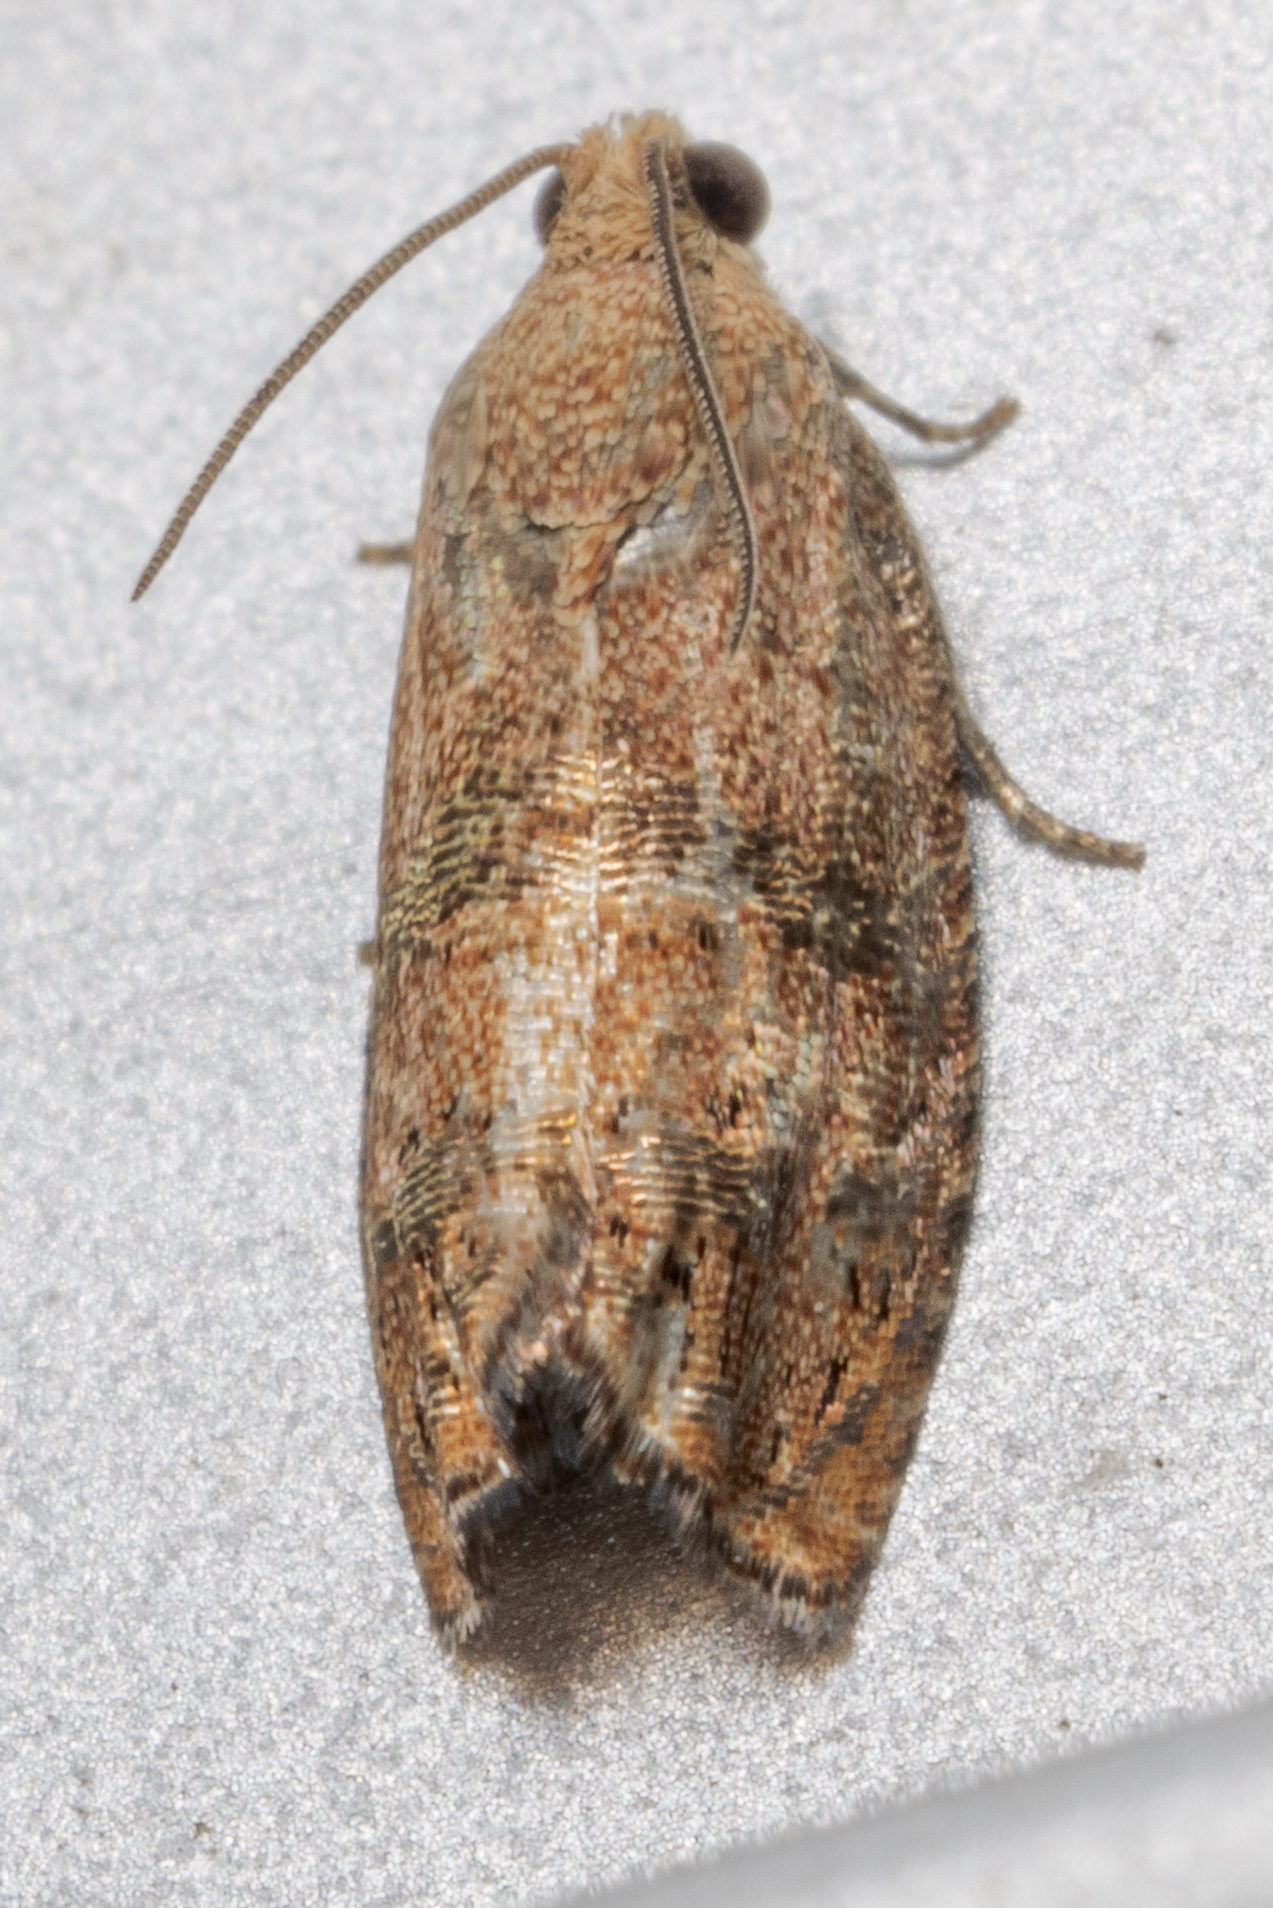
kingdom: Animalia
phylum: Arthropoda
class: Insecta
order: Lepidoptera
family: Tortricidae
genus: Cydia
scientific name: Cydia latiferreana
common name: Filbertworm moth
